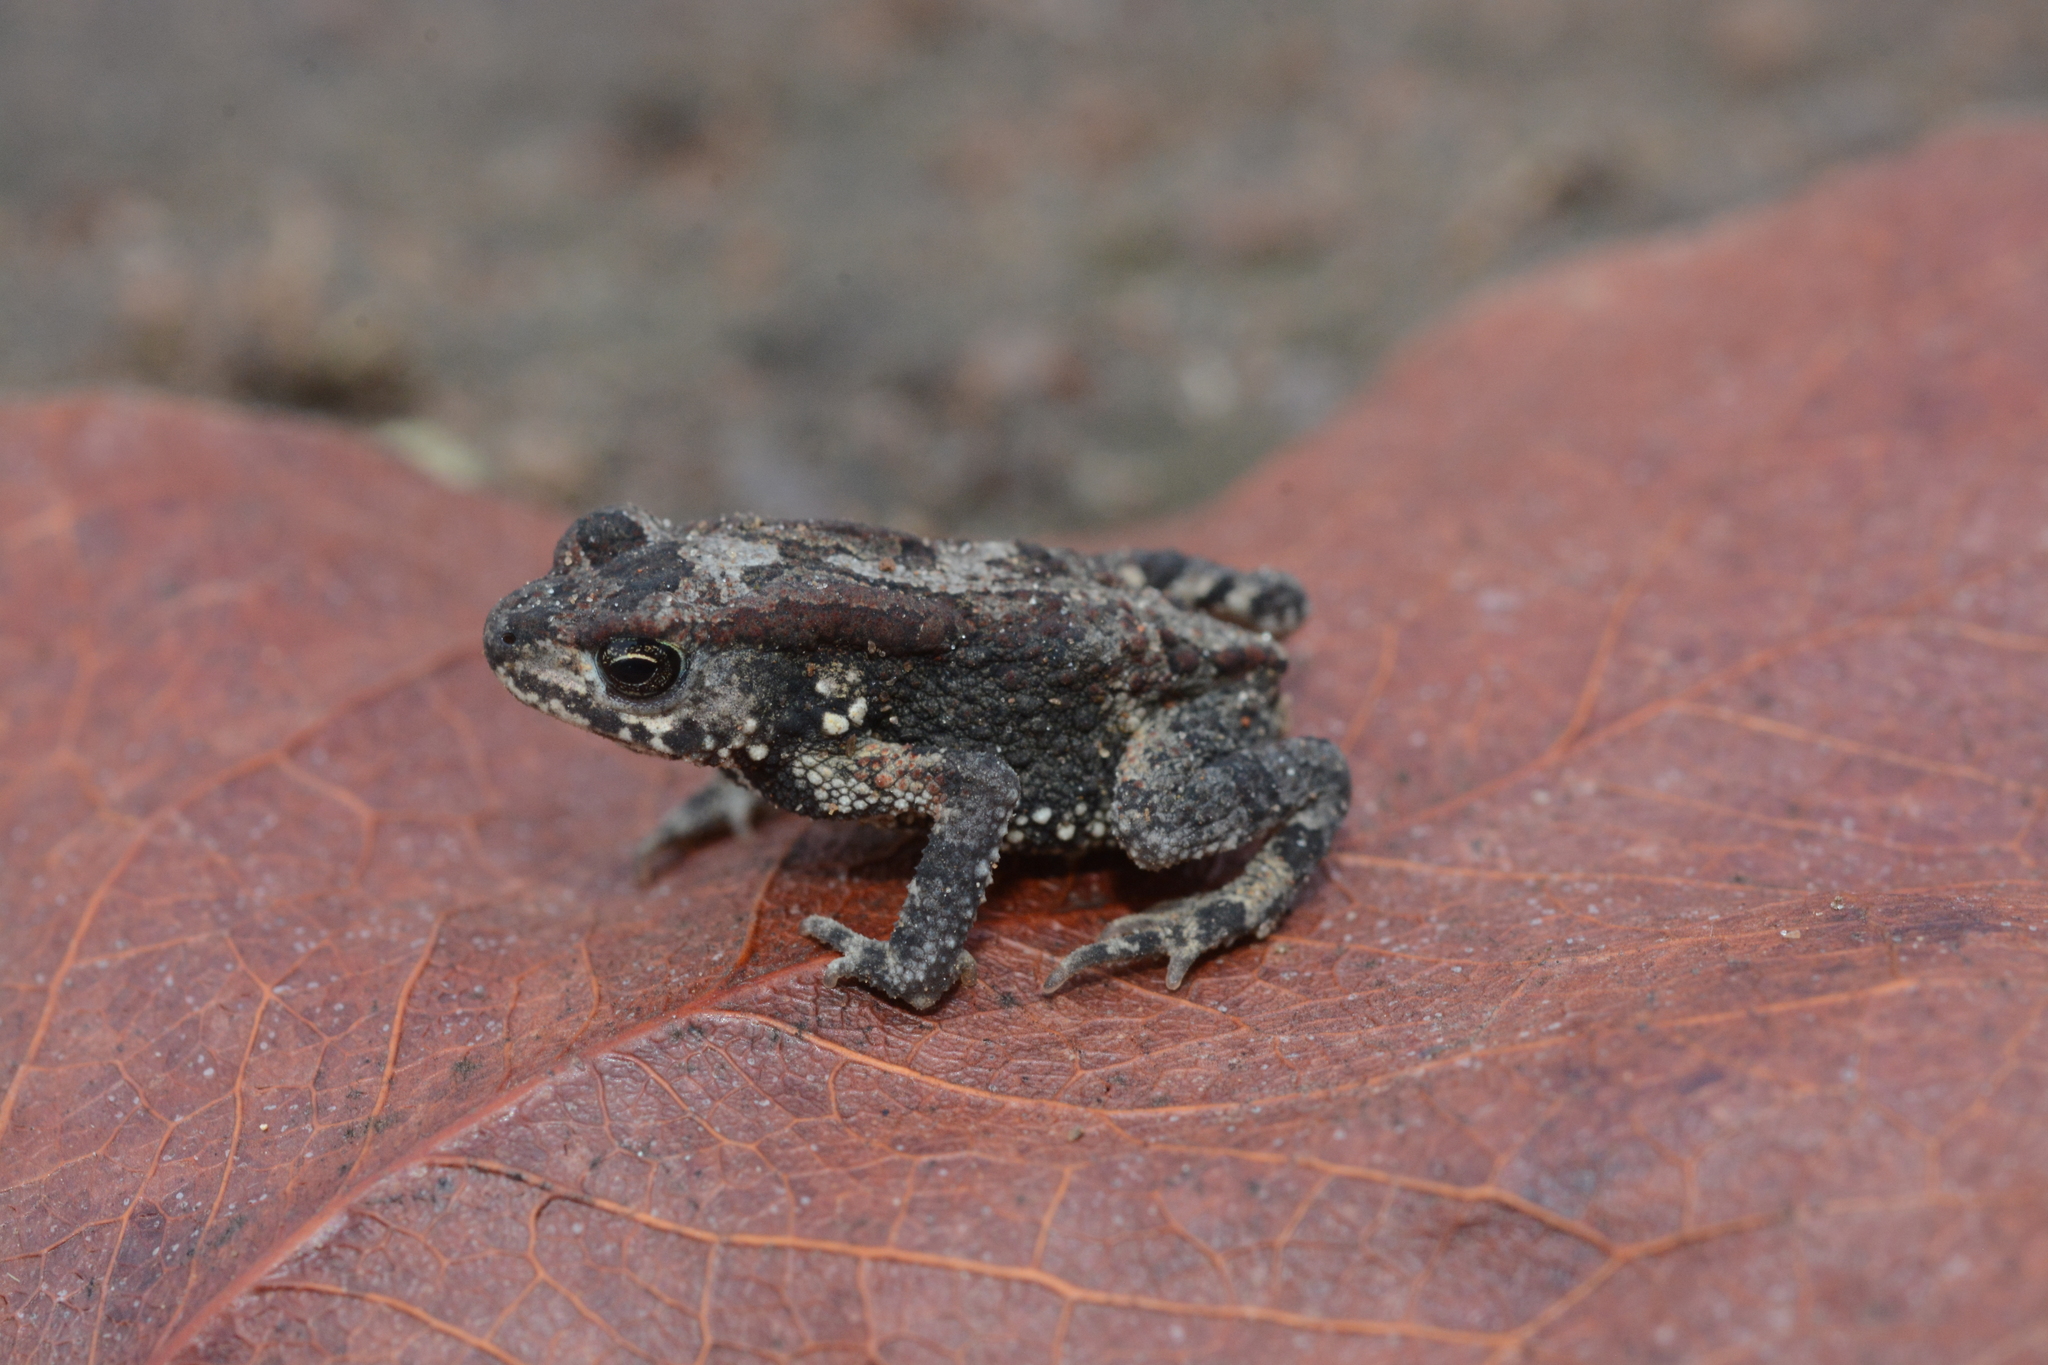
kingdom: Animalia
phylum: Chordata
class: Amphibia
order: Anura
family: Bufonidae
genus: Mertensophryne
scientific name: Mertensophryne taitana
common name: Teita toad
